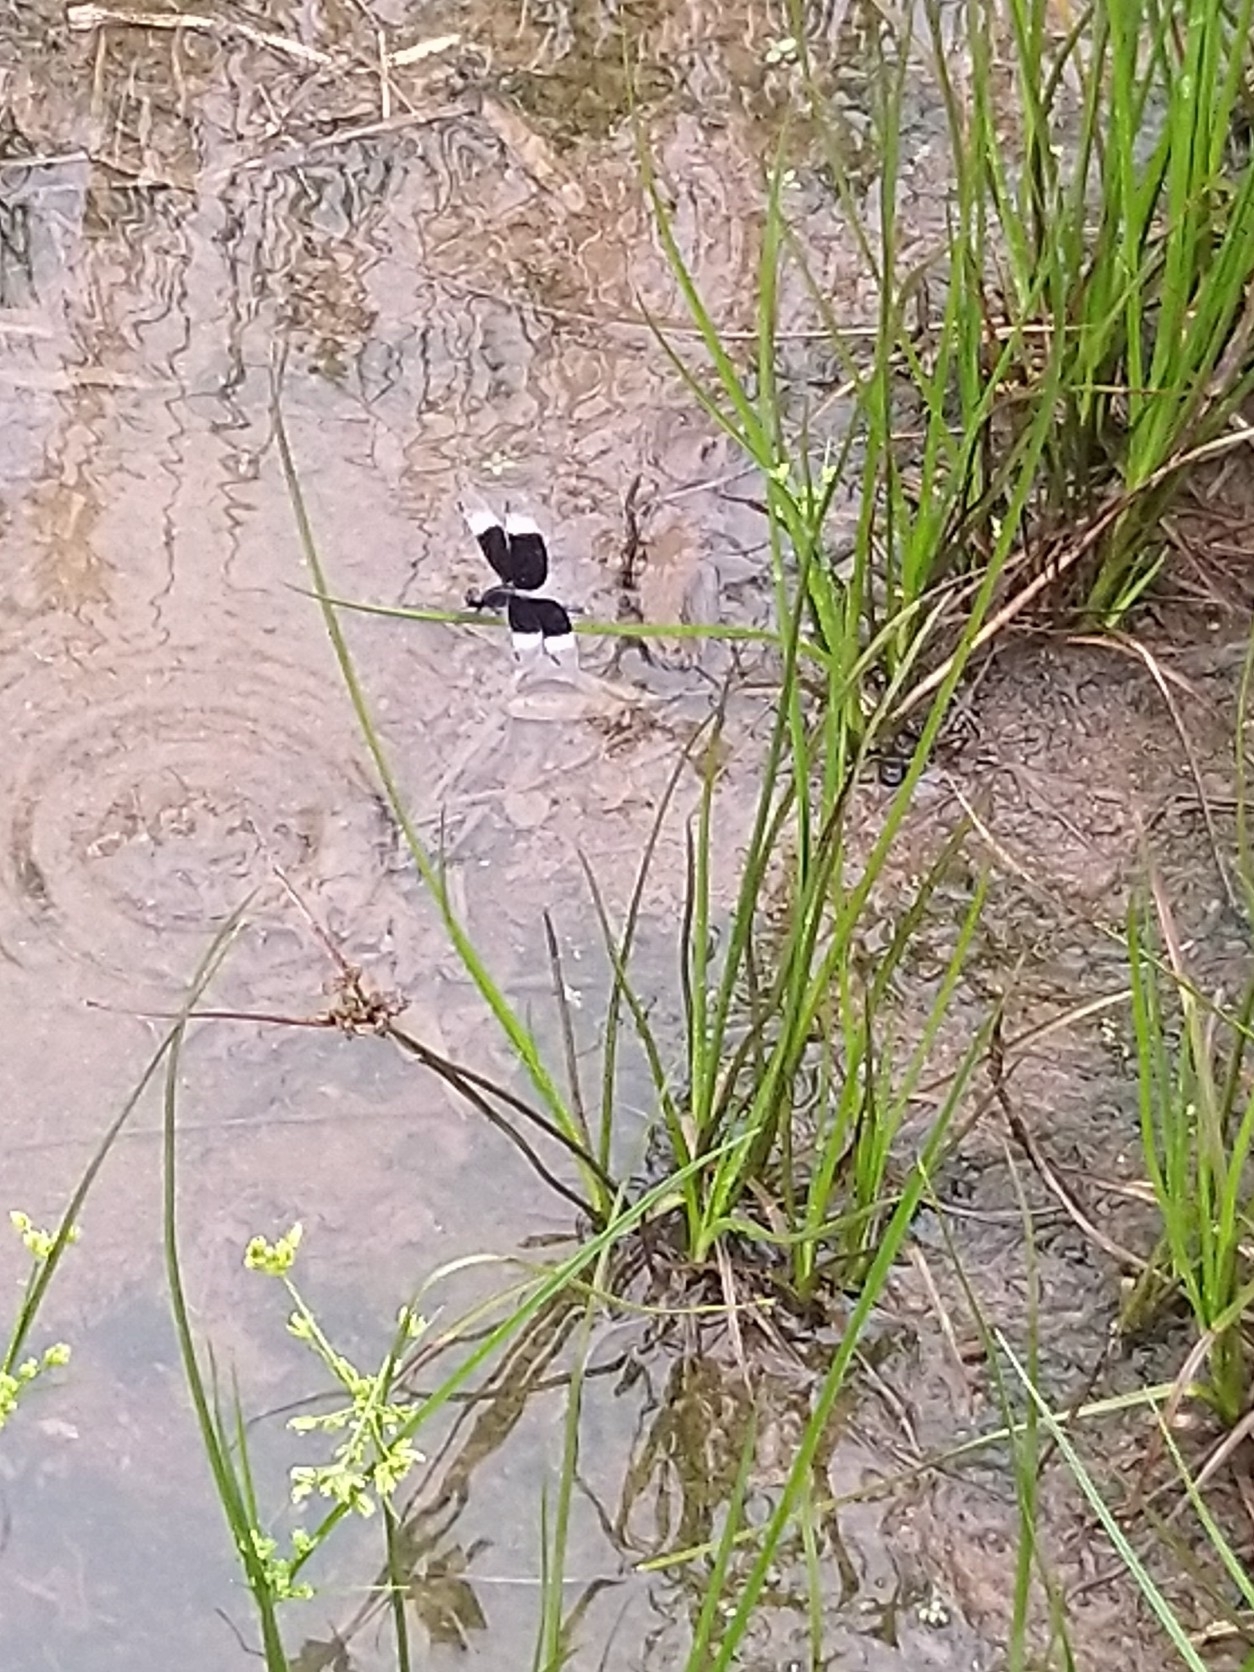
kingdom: Animalia
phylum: Arthropoda
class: Insecta
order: Odonata
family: Libellulidae
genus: Neurothemis
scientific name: Neurothemis tullia
